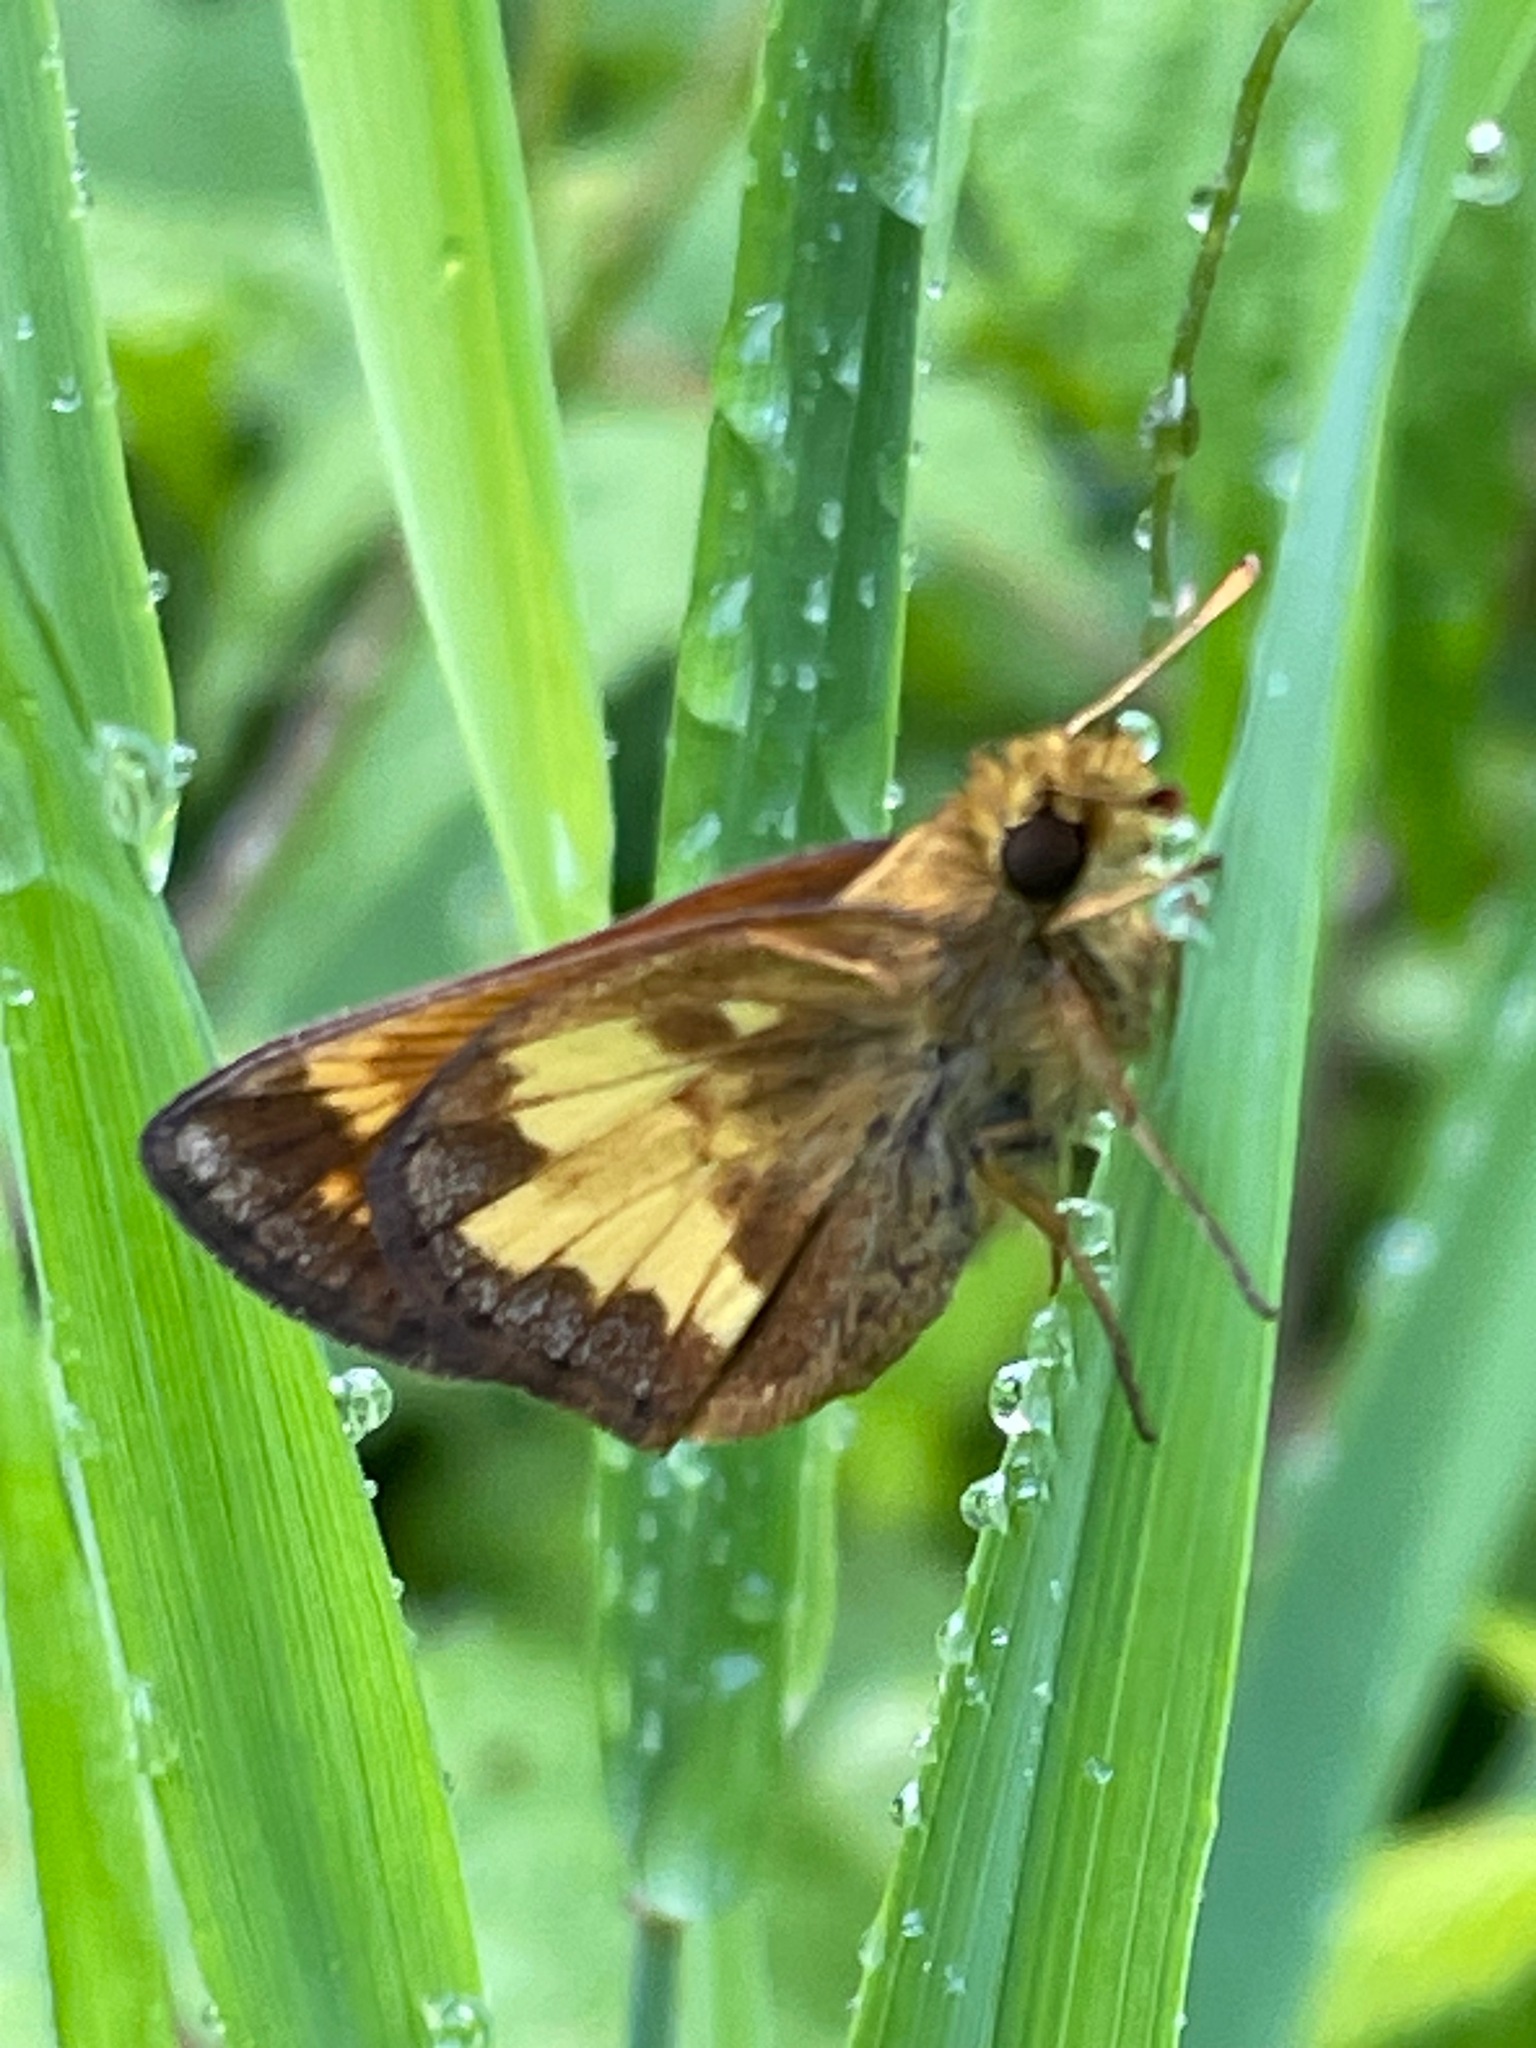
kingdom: Animalia
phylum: Arthropoda
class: Insecta
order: Lepidoptera
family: Hesperiidae
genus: Lon
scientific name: Lon hobomok
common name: Hobomok skipper
